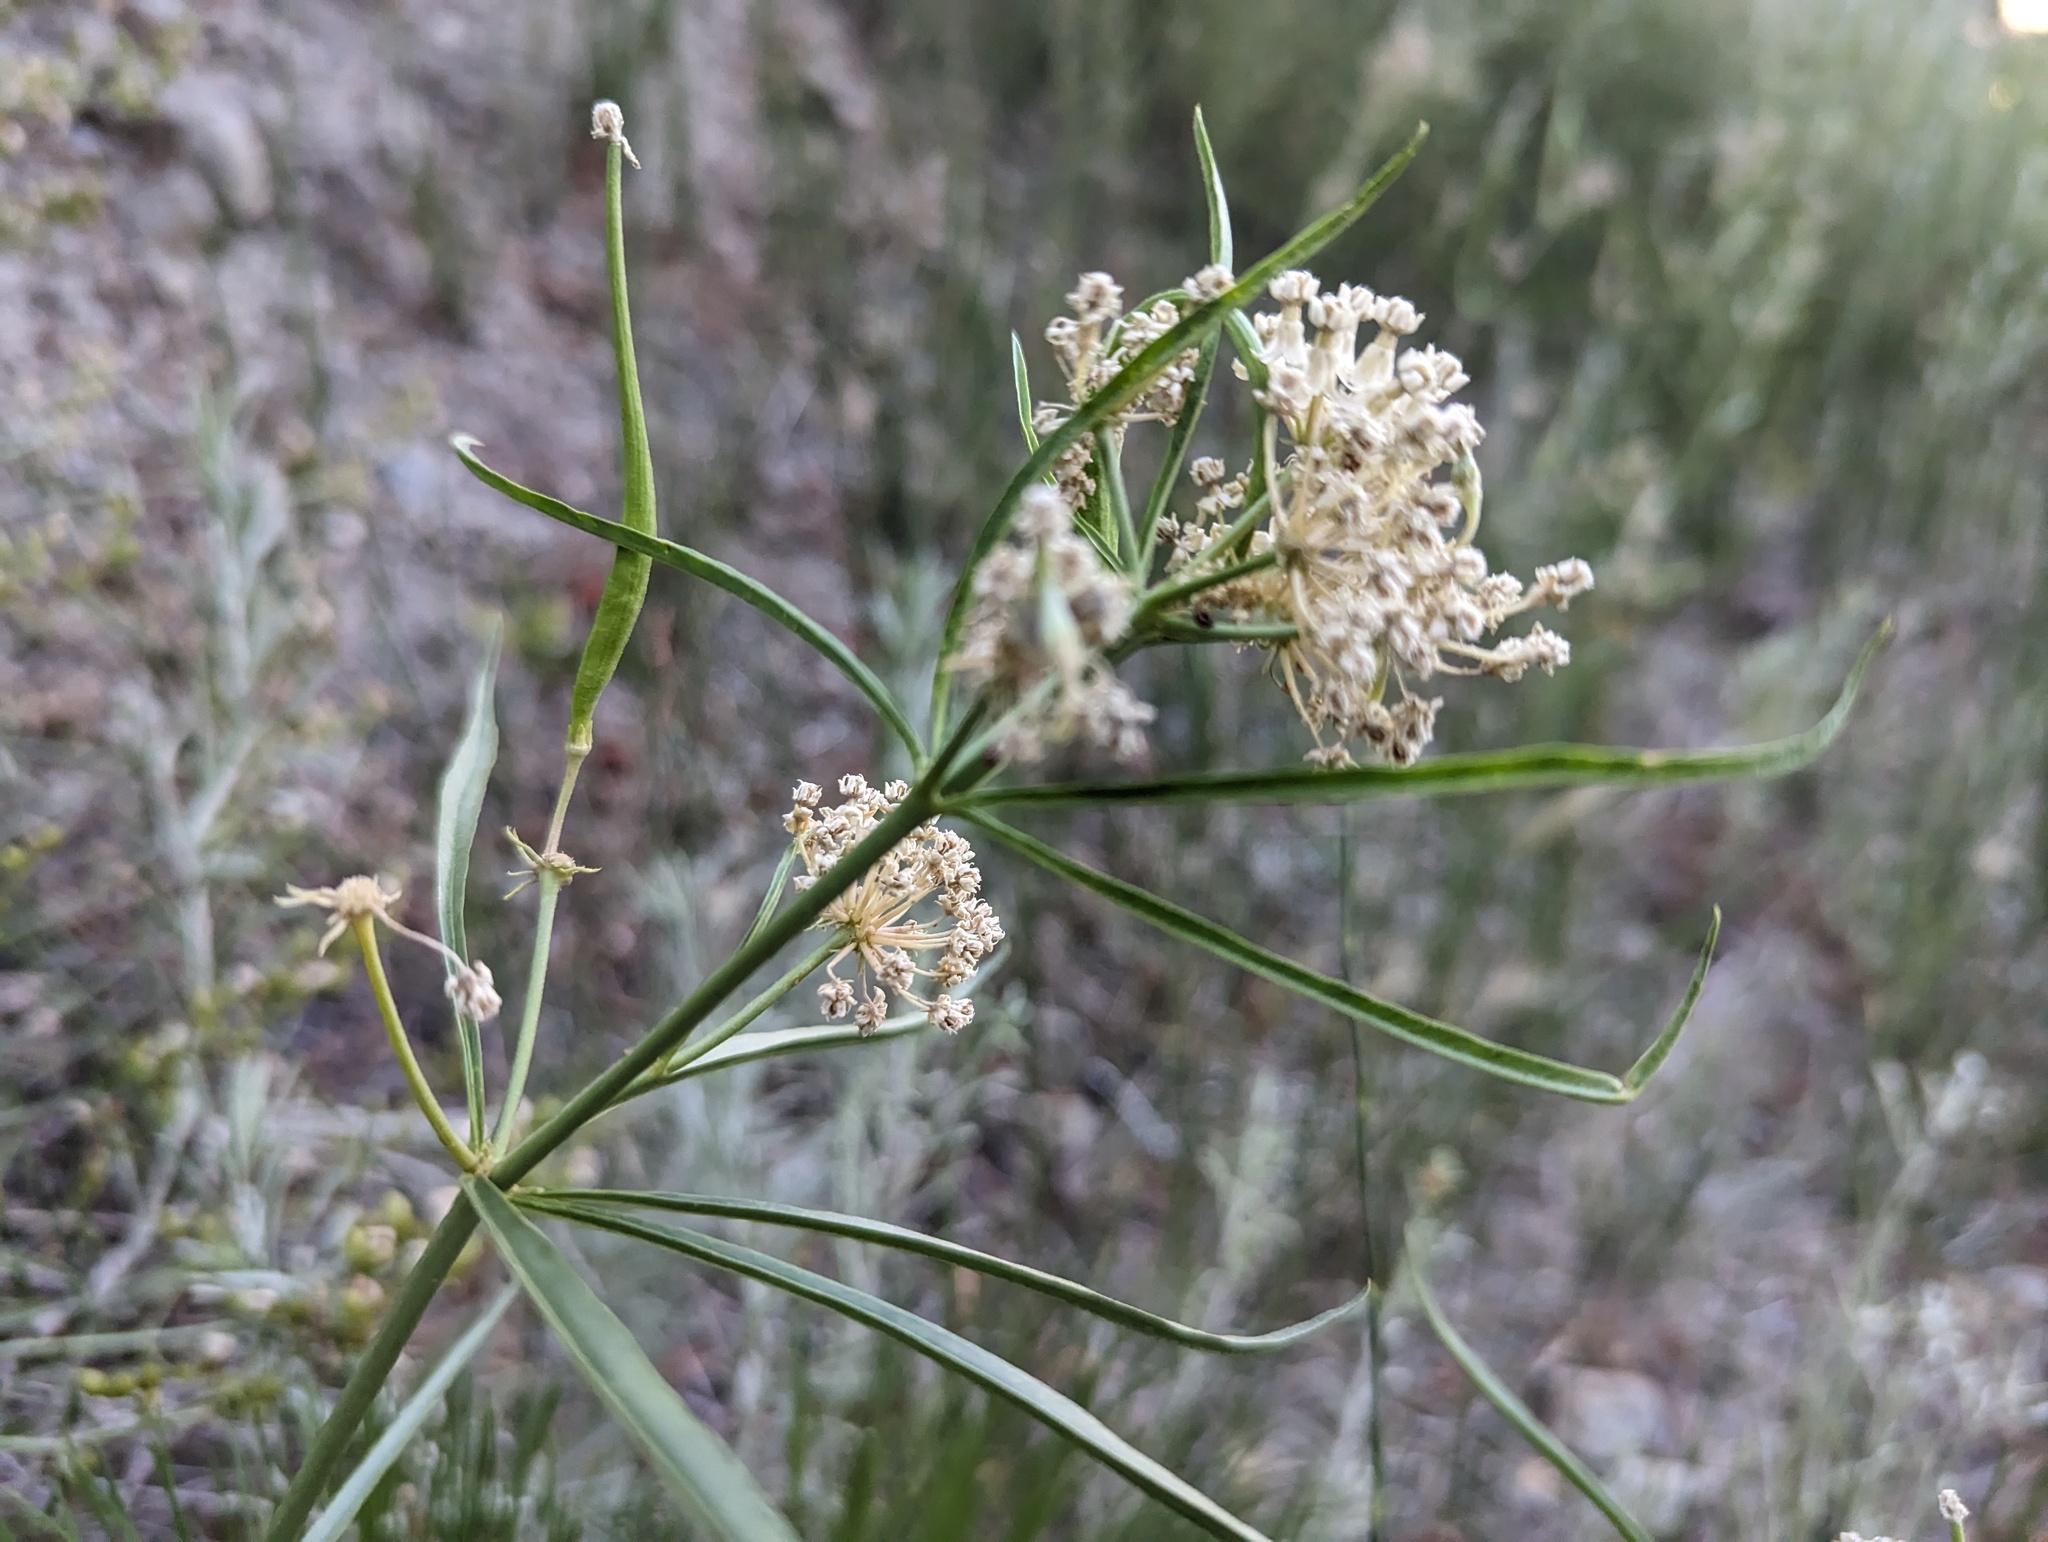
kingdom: Plantae
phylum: Tracheophyta
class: Magnoliopsida
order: Gentianales
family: Apocynaceae
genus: Asclepias
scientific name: Asclepias fascicularis
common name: Mexican milkweed
